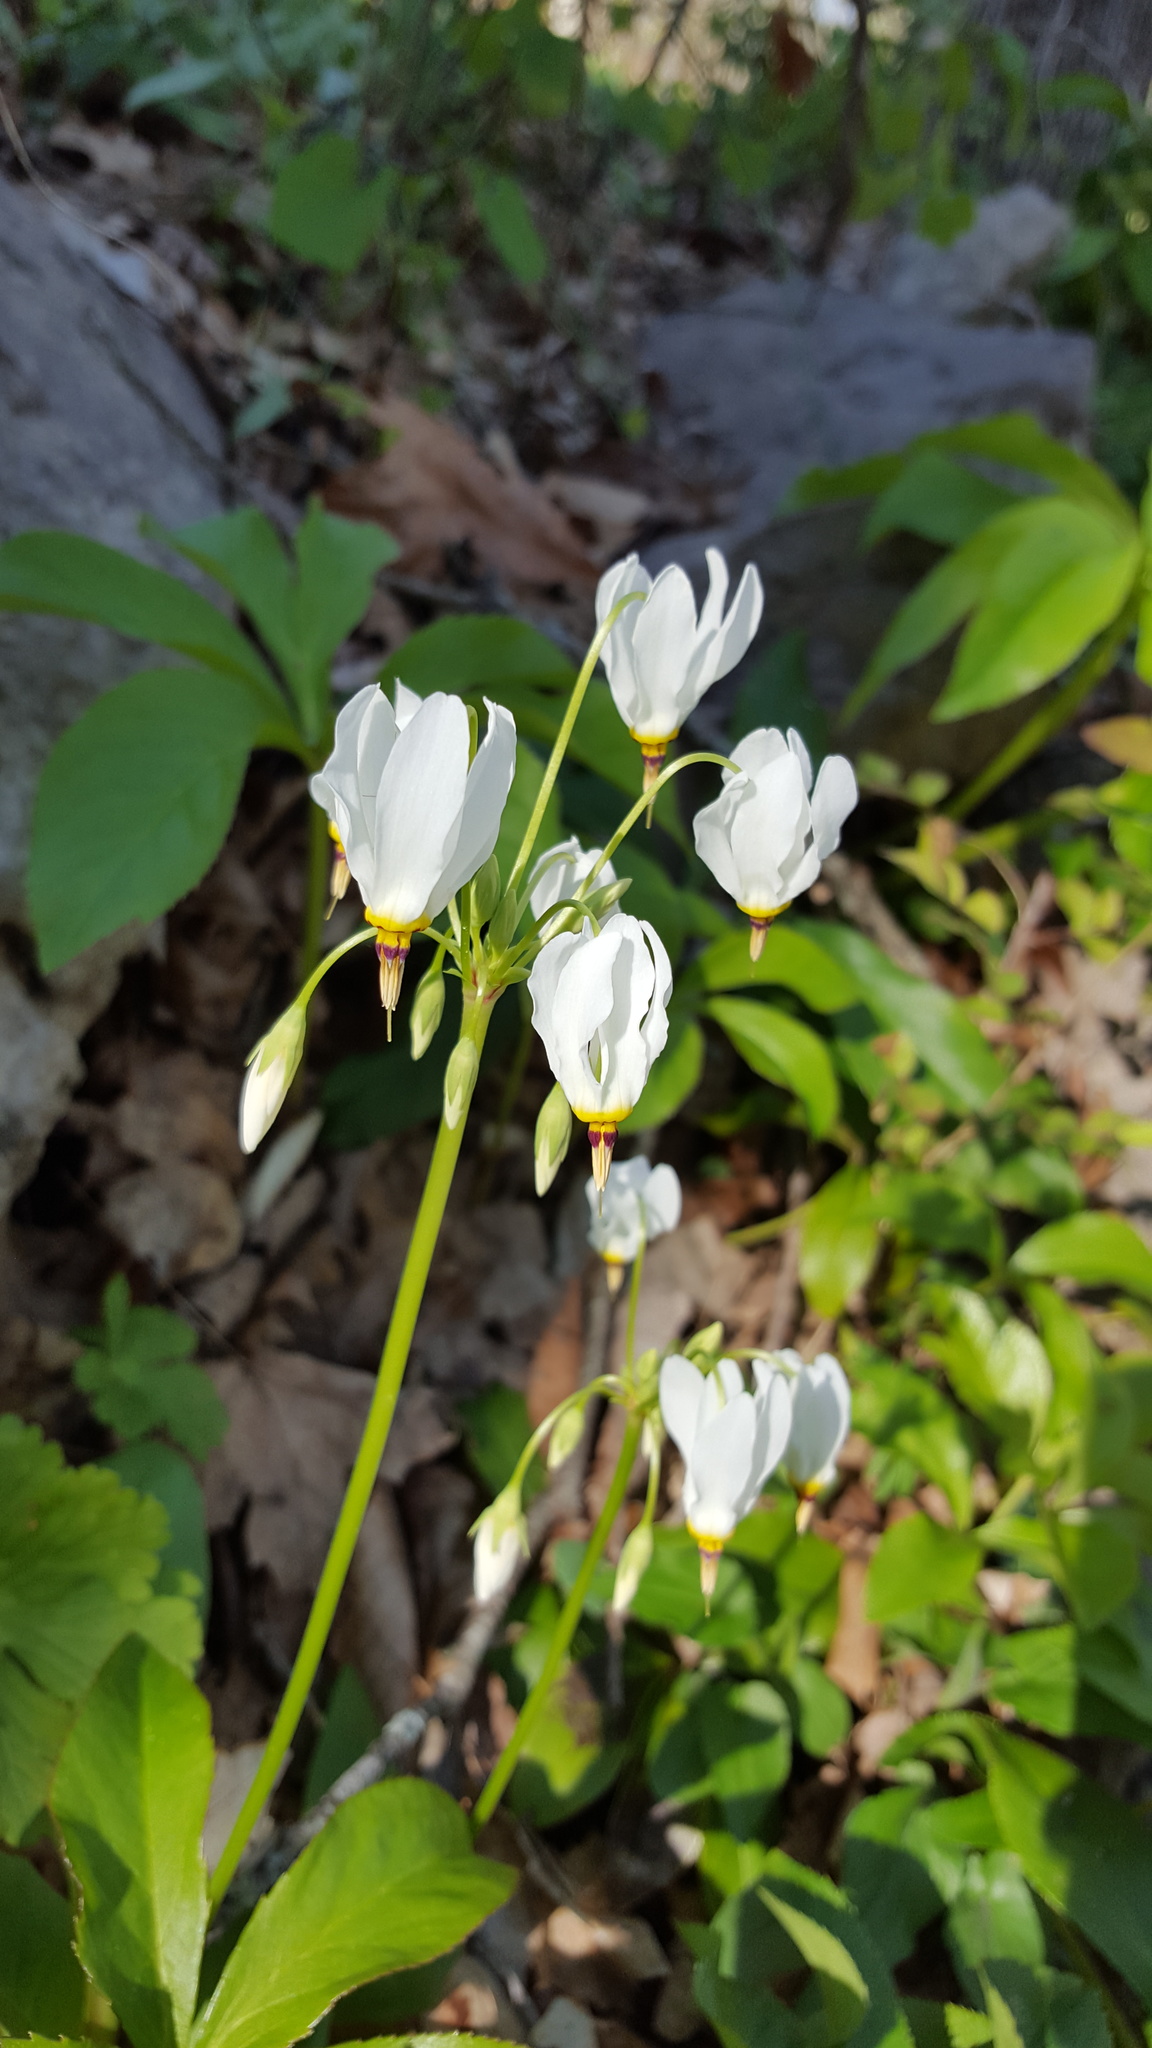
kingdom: Plantae
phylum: Tracheophyta
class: Magnoliopsida
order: Ericales
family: Primulaceae
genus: Dodecatheon
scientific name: Dodecatheon meadia
